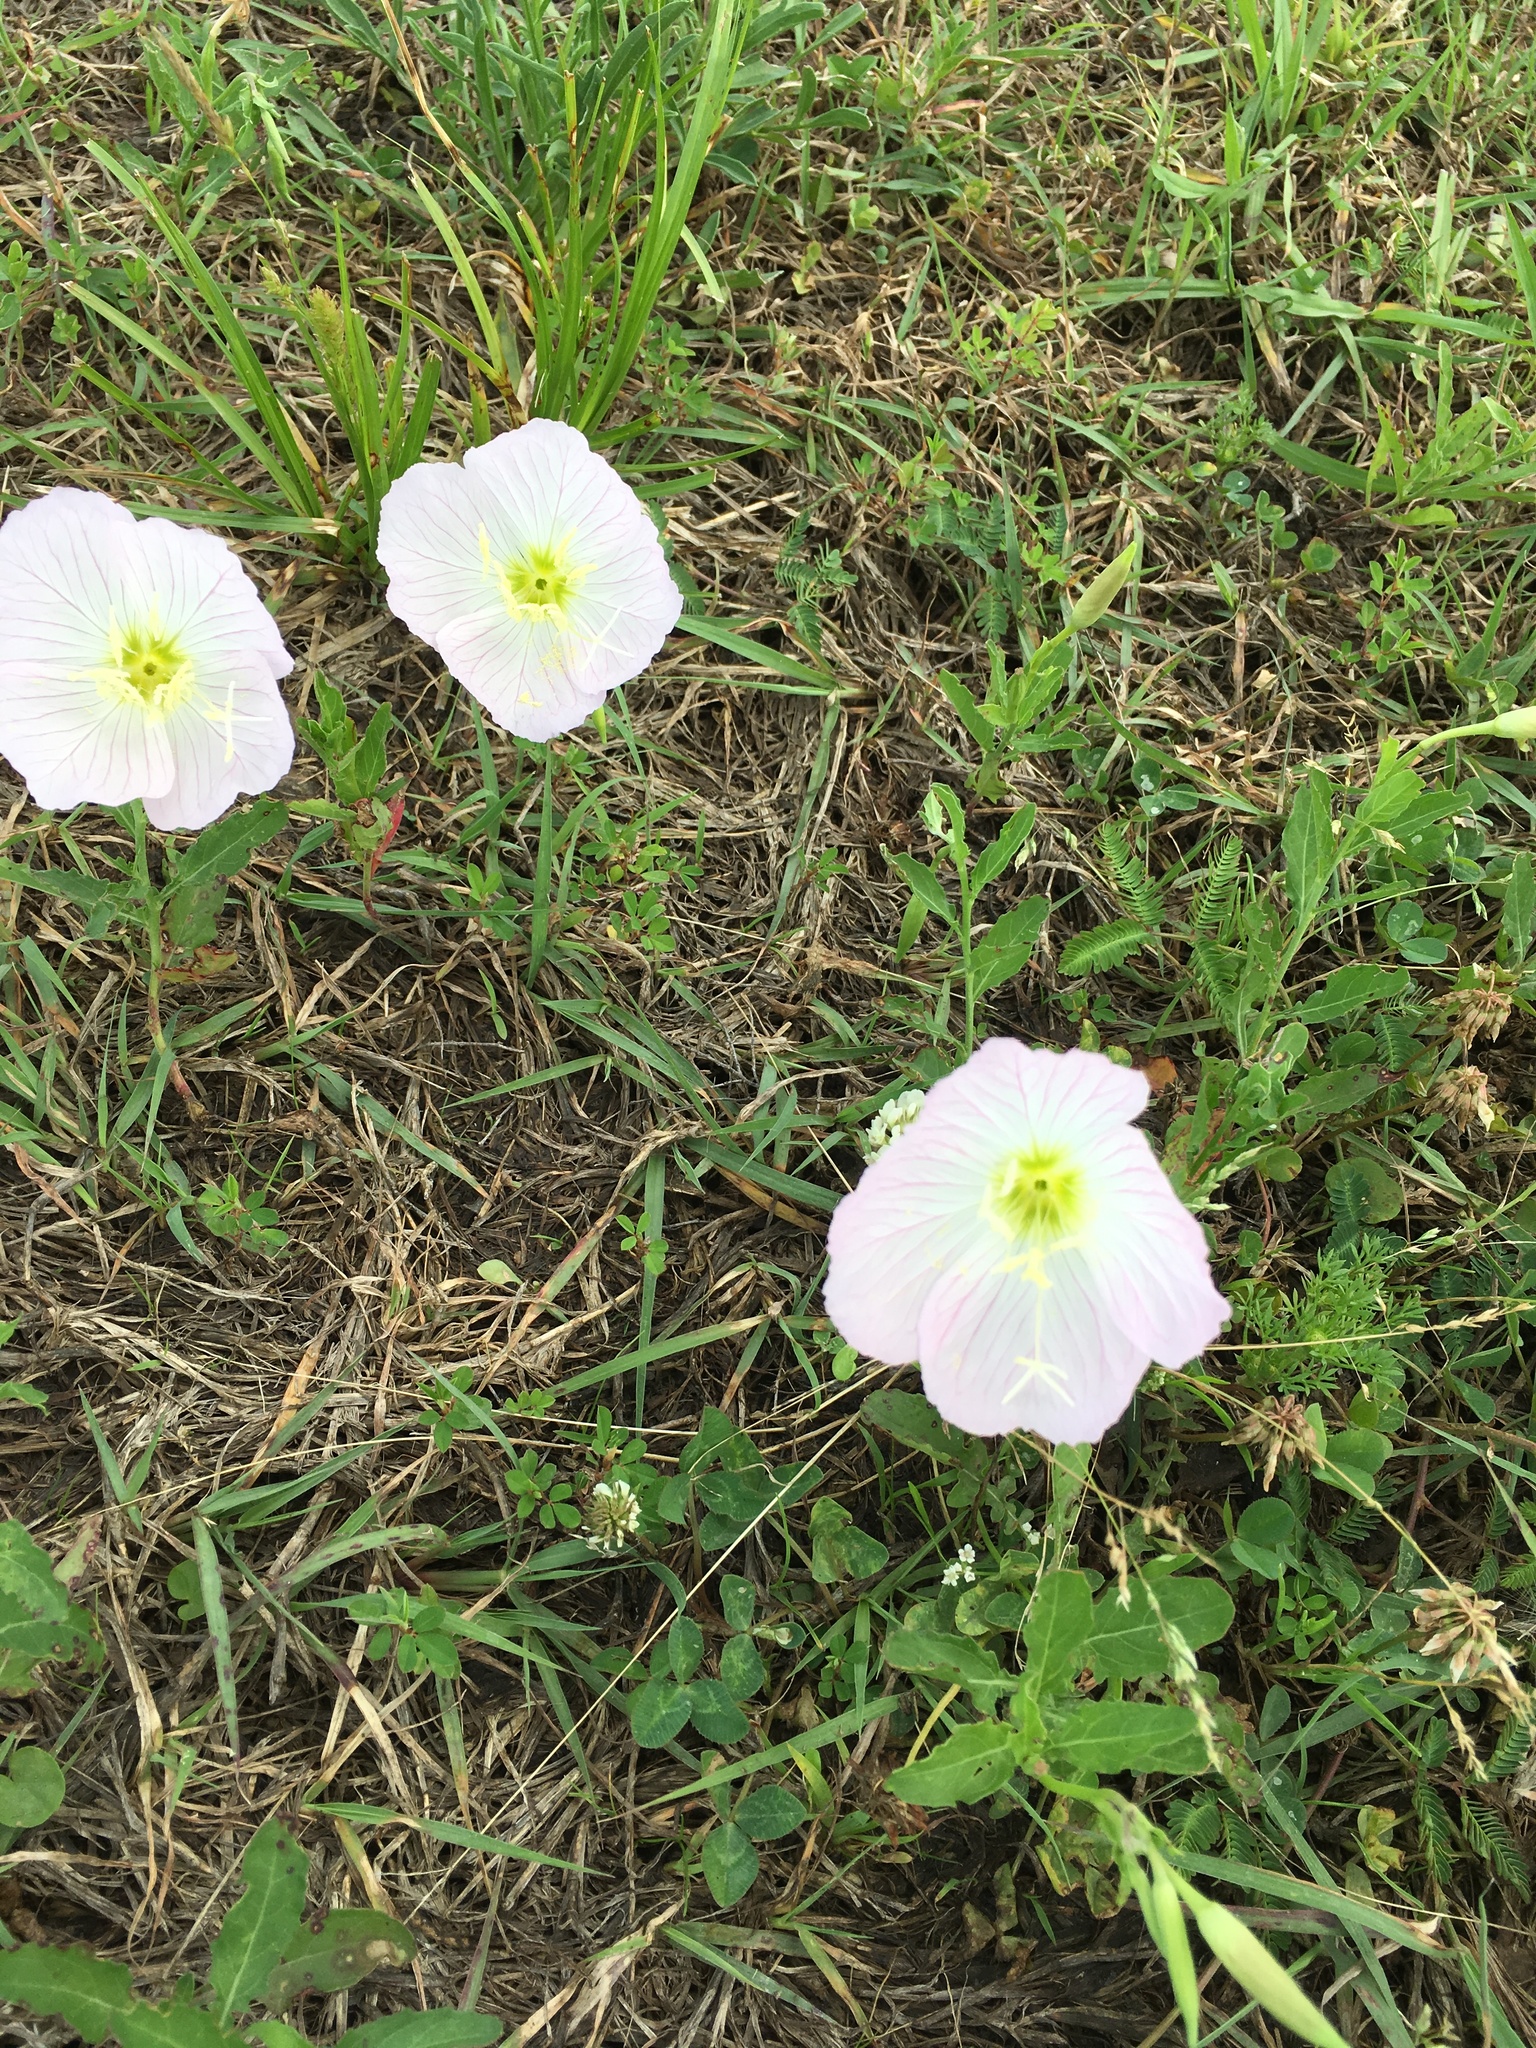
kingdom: Plantae
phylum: Tracheophyta
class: Magnoliopsida
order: Myrtales
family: Onagraceae
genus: Oenothera
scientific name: Oenothera speciosa
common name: White evening-primrose
